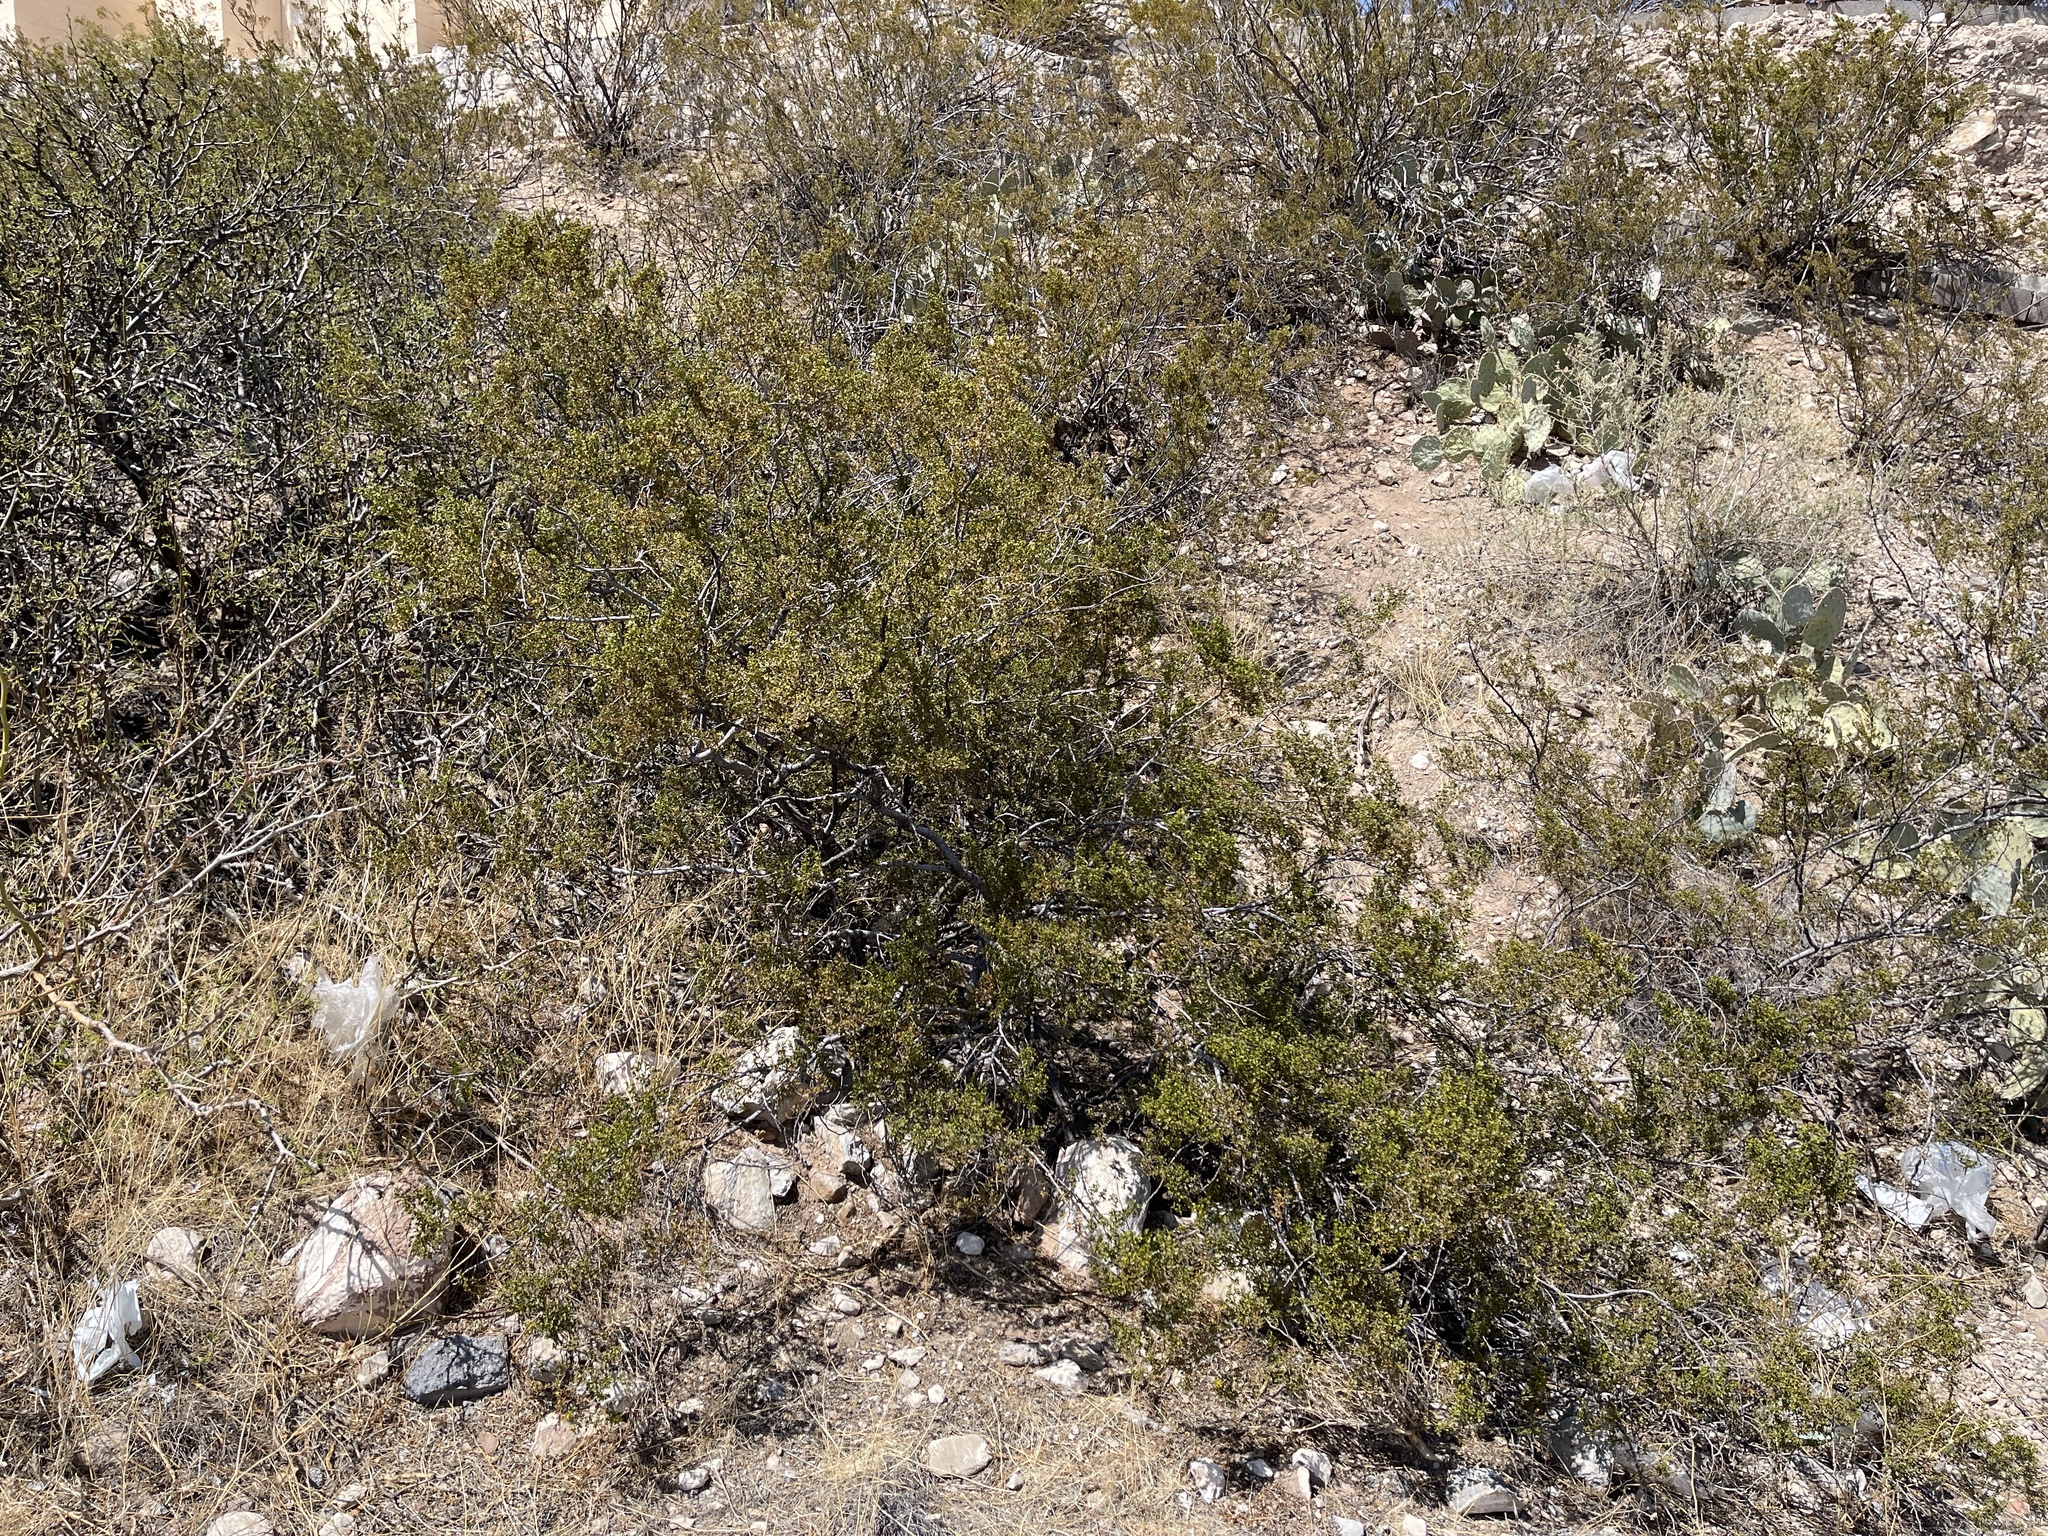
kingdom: Plantae
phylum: Tracheophyta
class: Magnoliopsida
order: Zygophyllales
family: Zygophyllaceae
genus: Larrea
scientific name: Larrea tridentata
